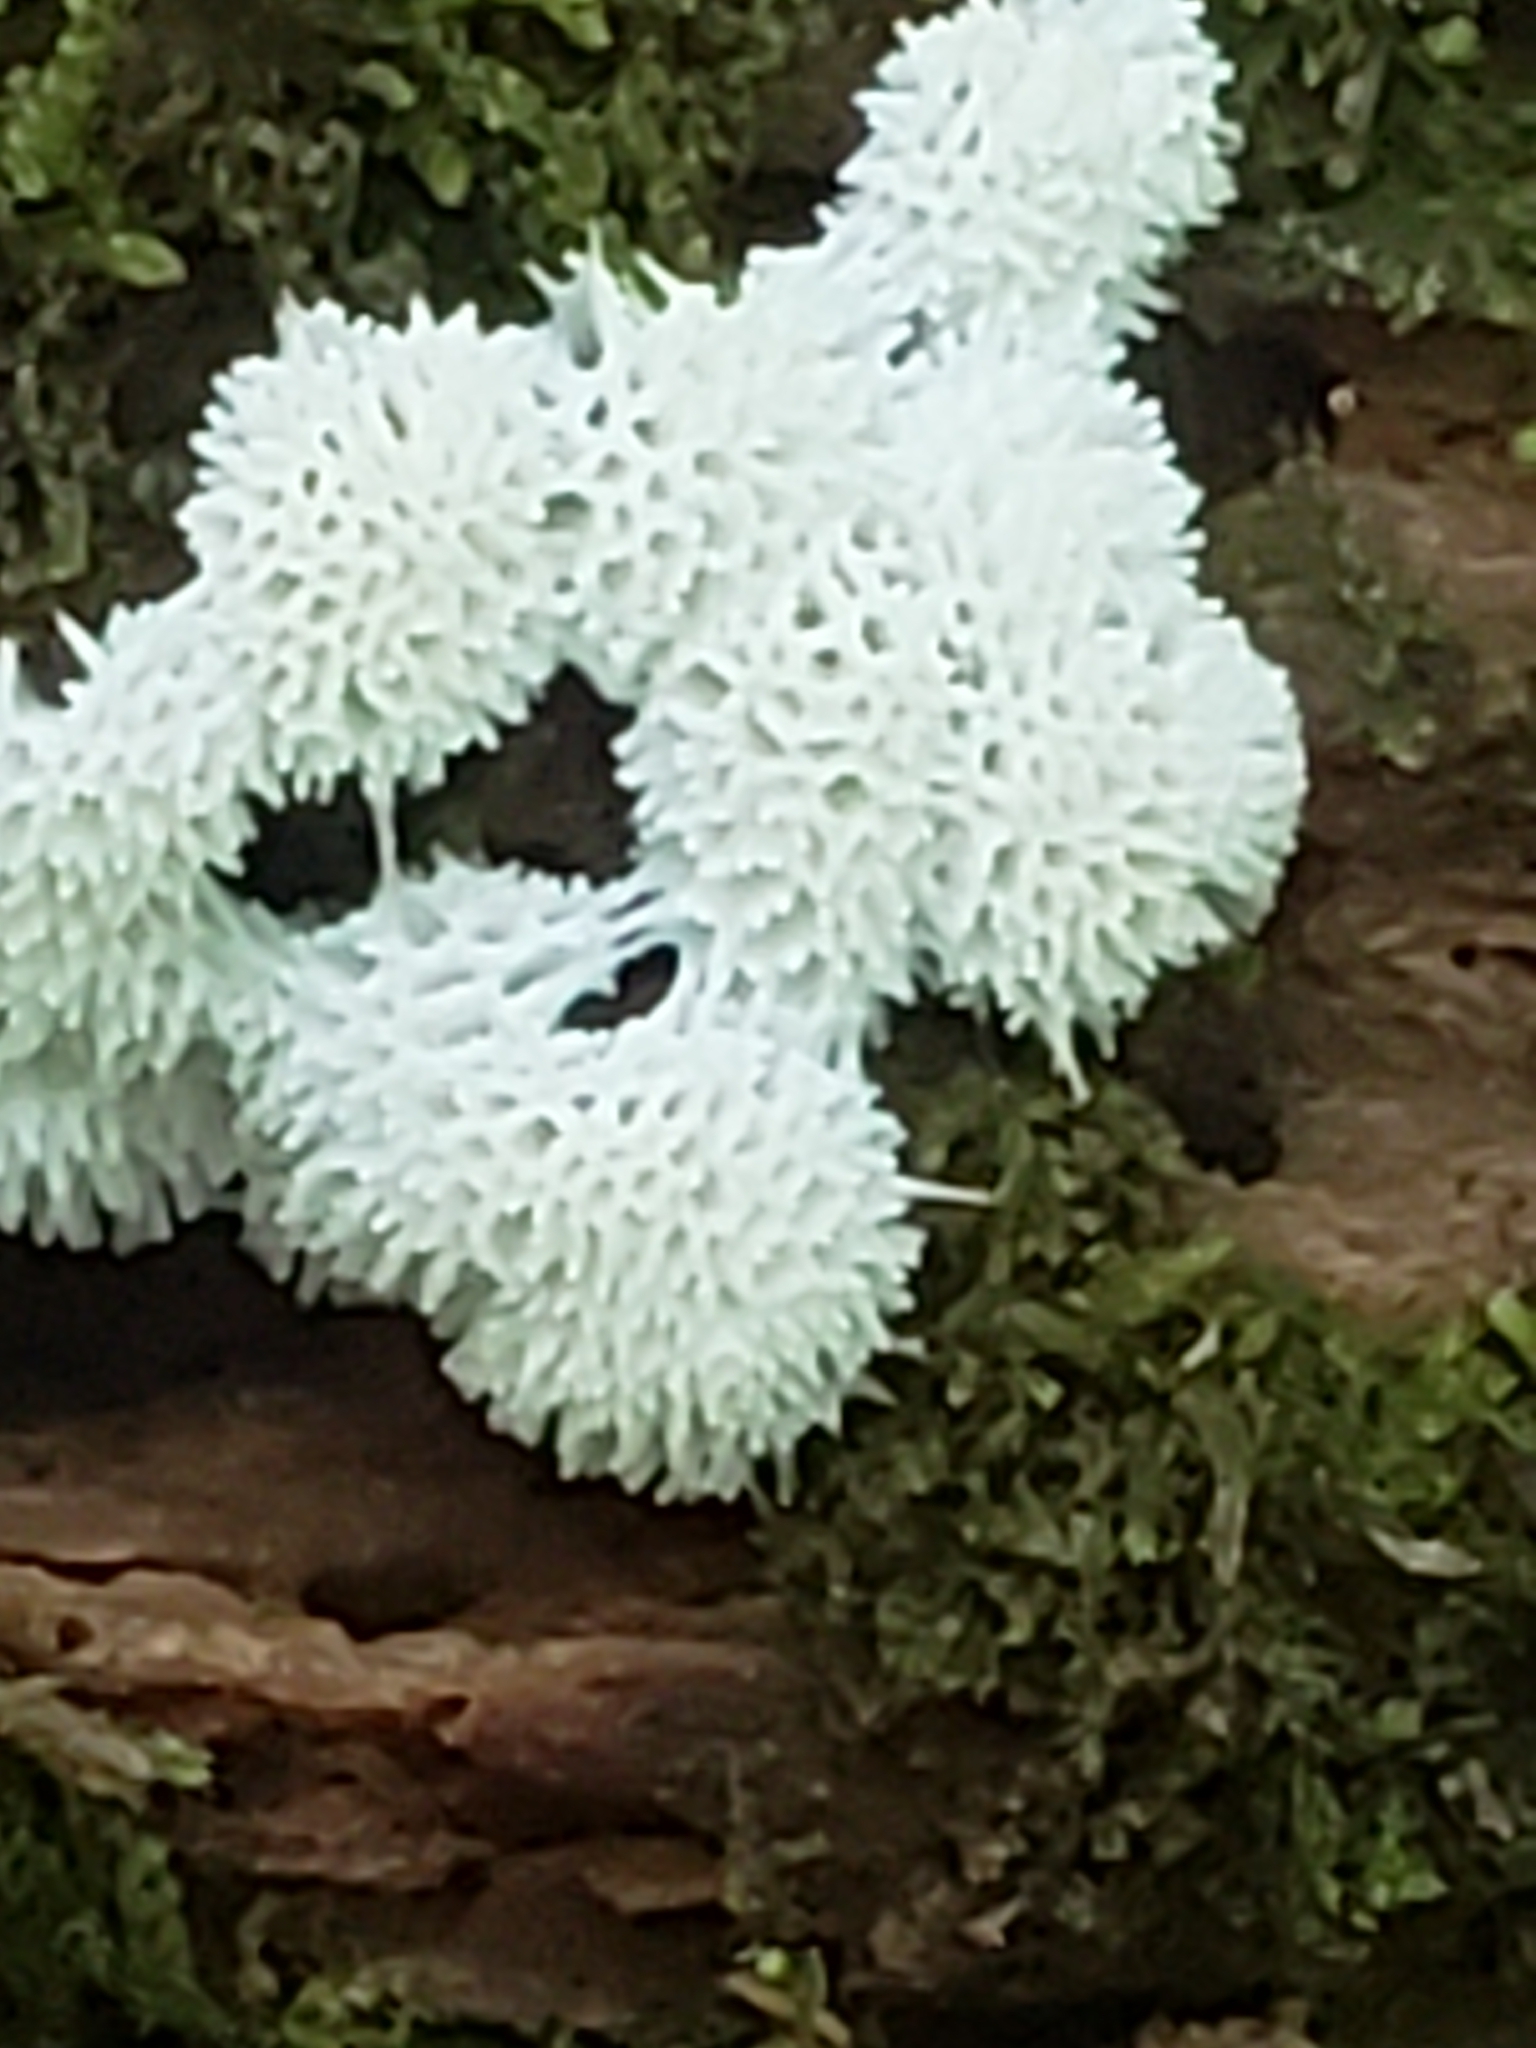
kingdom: Protozoa
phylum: Mycetozoa
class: Protosteliomycetes
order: Ceratiomyxales
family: Ceratiomyxaceae
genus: Ceratiomyxa
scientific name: Ceratiomyxa fruticulosa
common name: Honeycomb coral slime mold
